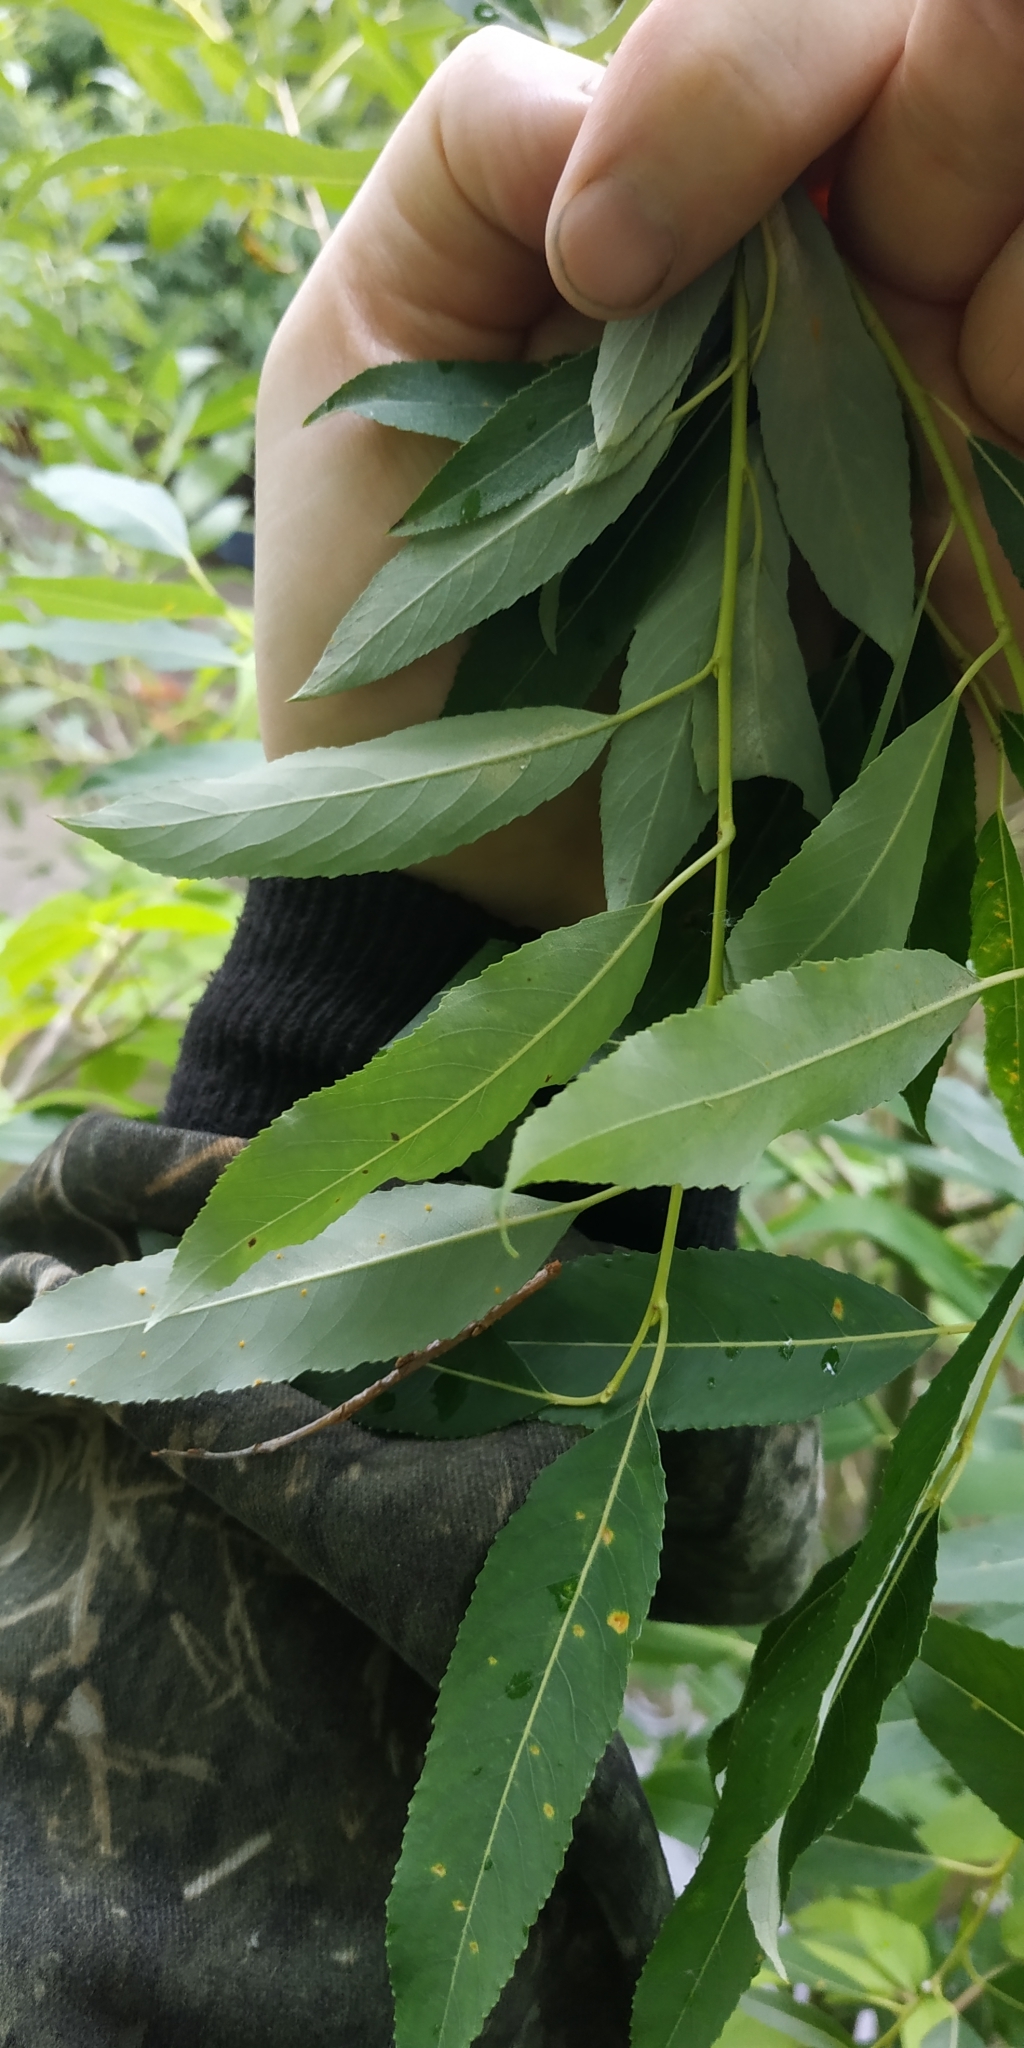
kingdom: Plantae
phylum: Tracheophyta
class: Magnoliopsida
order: Malpighiales
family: Salicaceae
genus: Salix
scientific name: Salix triandra
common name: Almond willow
